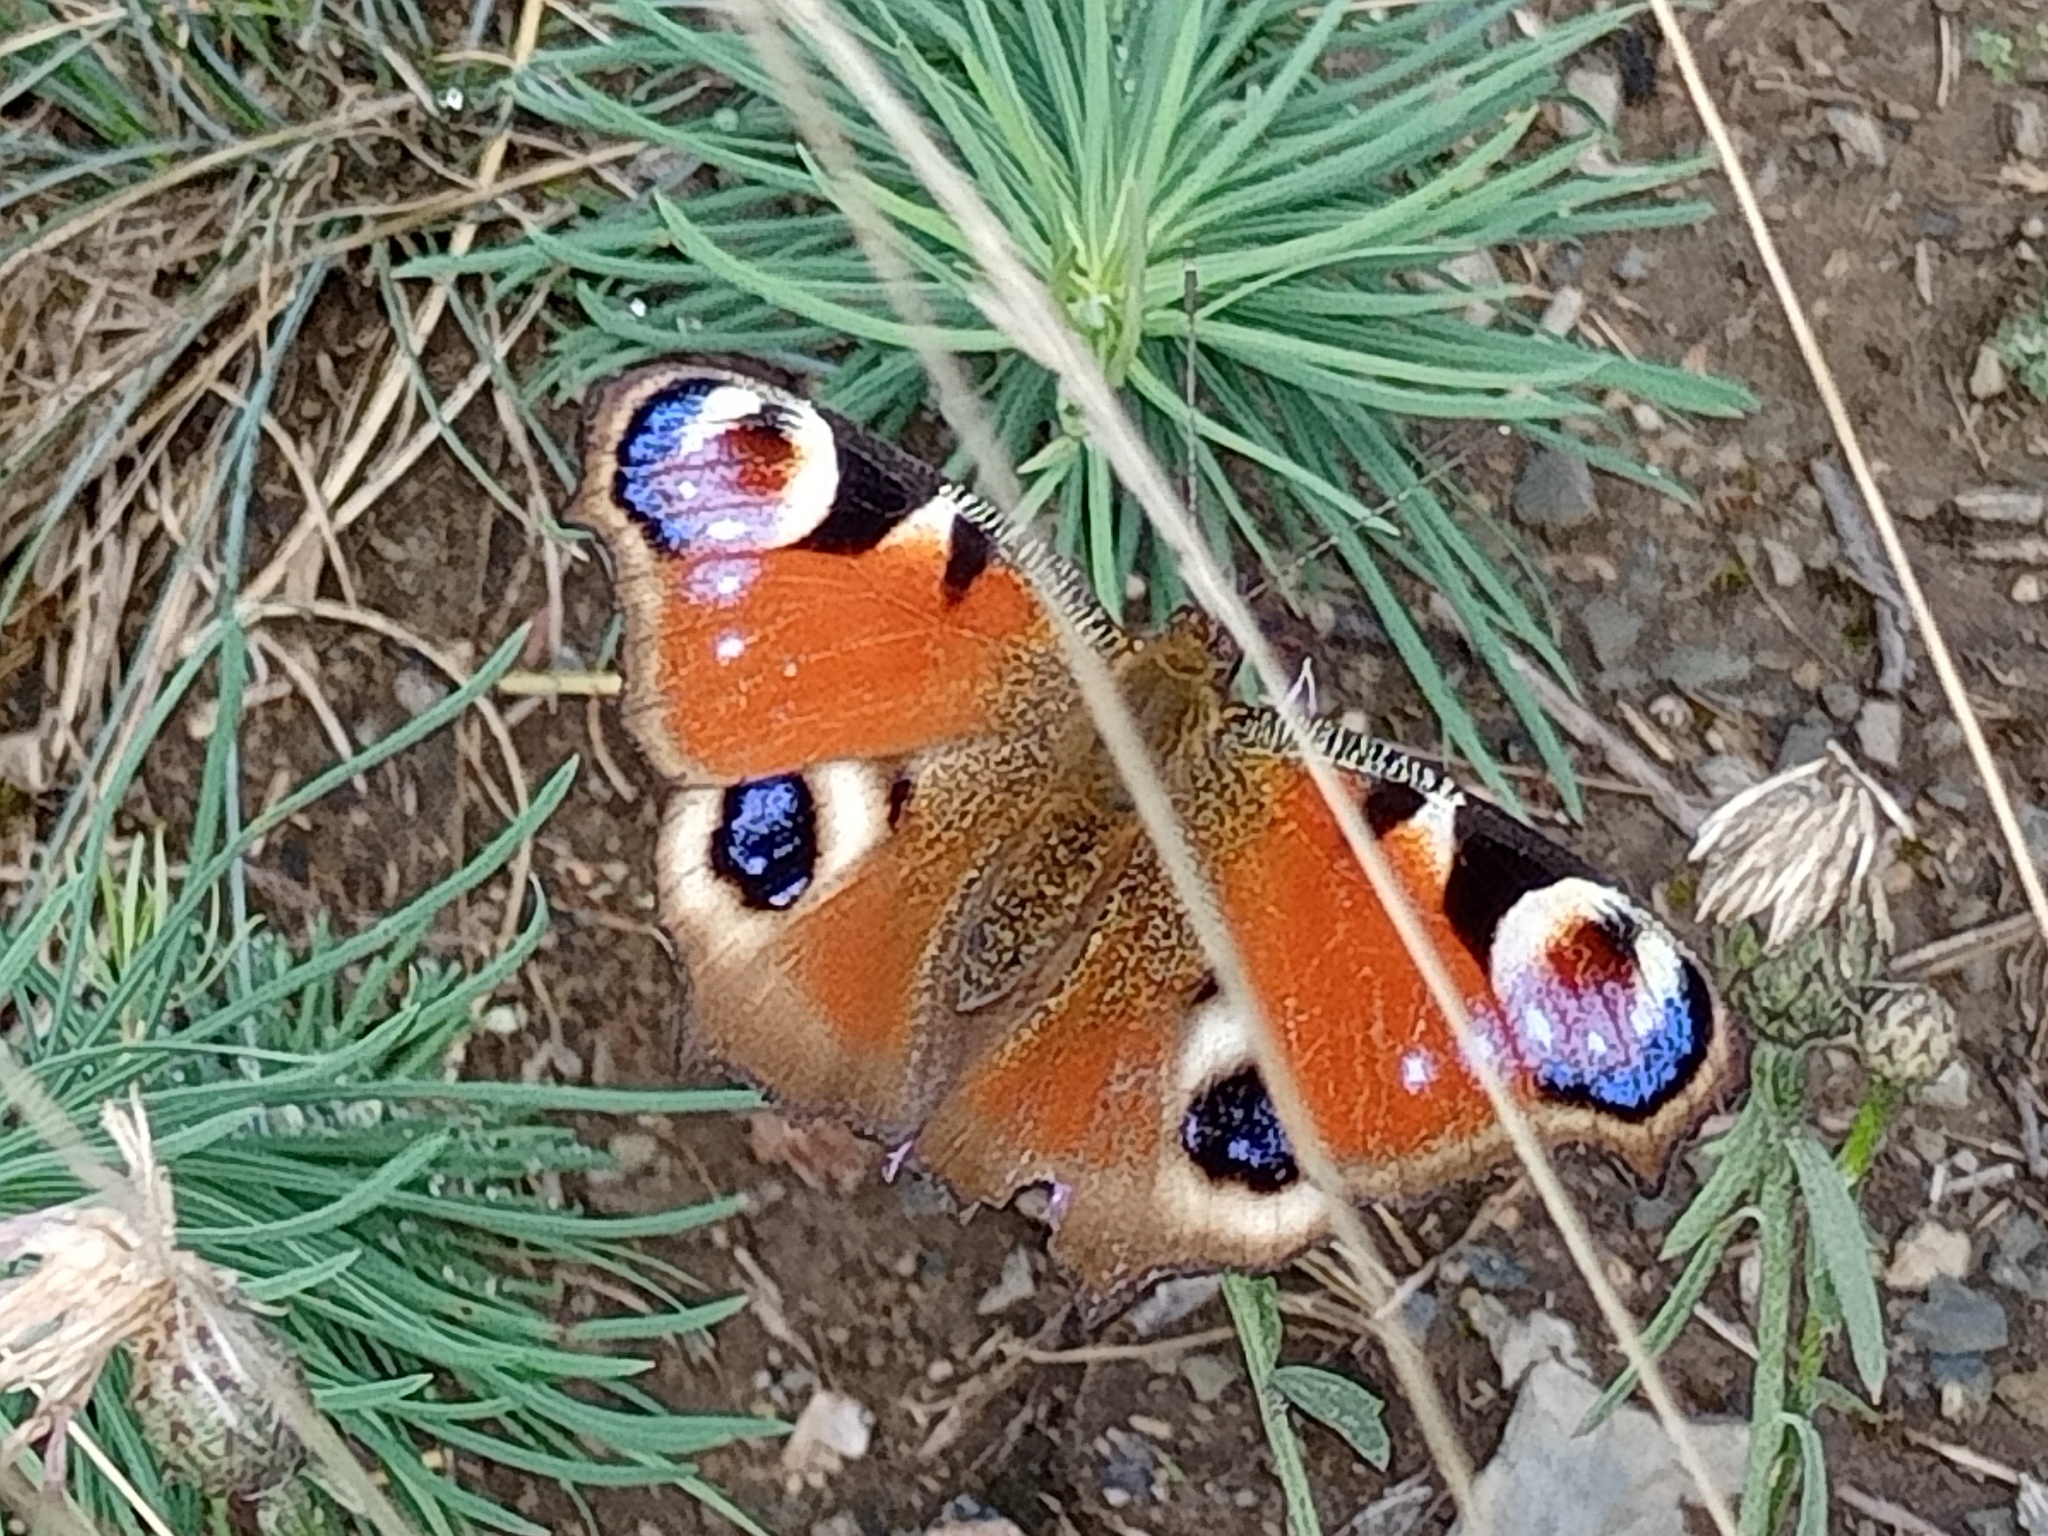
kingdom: Animalia
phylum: Arthropoda
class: Insecta
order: Lepidoptera
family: Nymphalidae
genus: Aglais
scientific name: Aglais io
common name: Peacock
